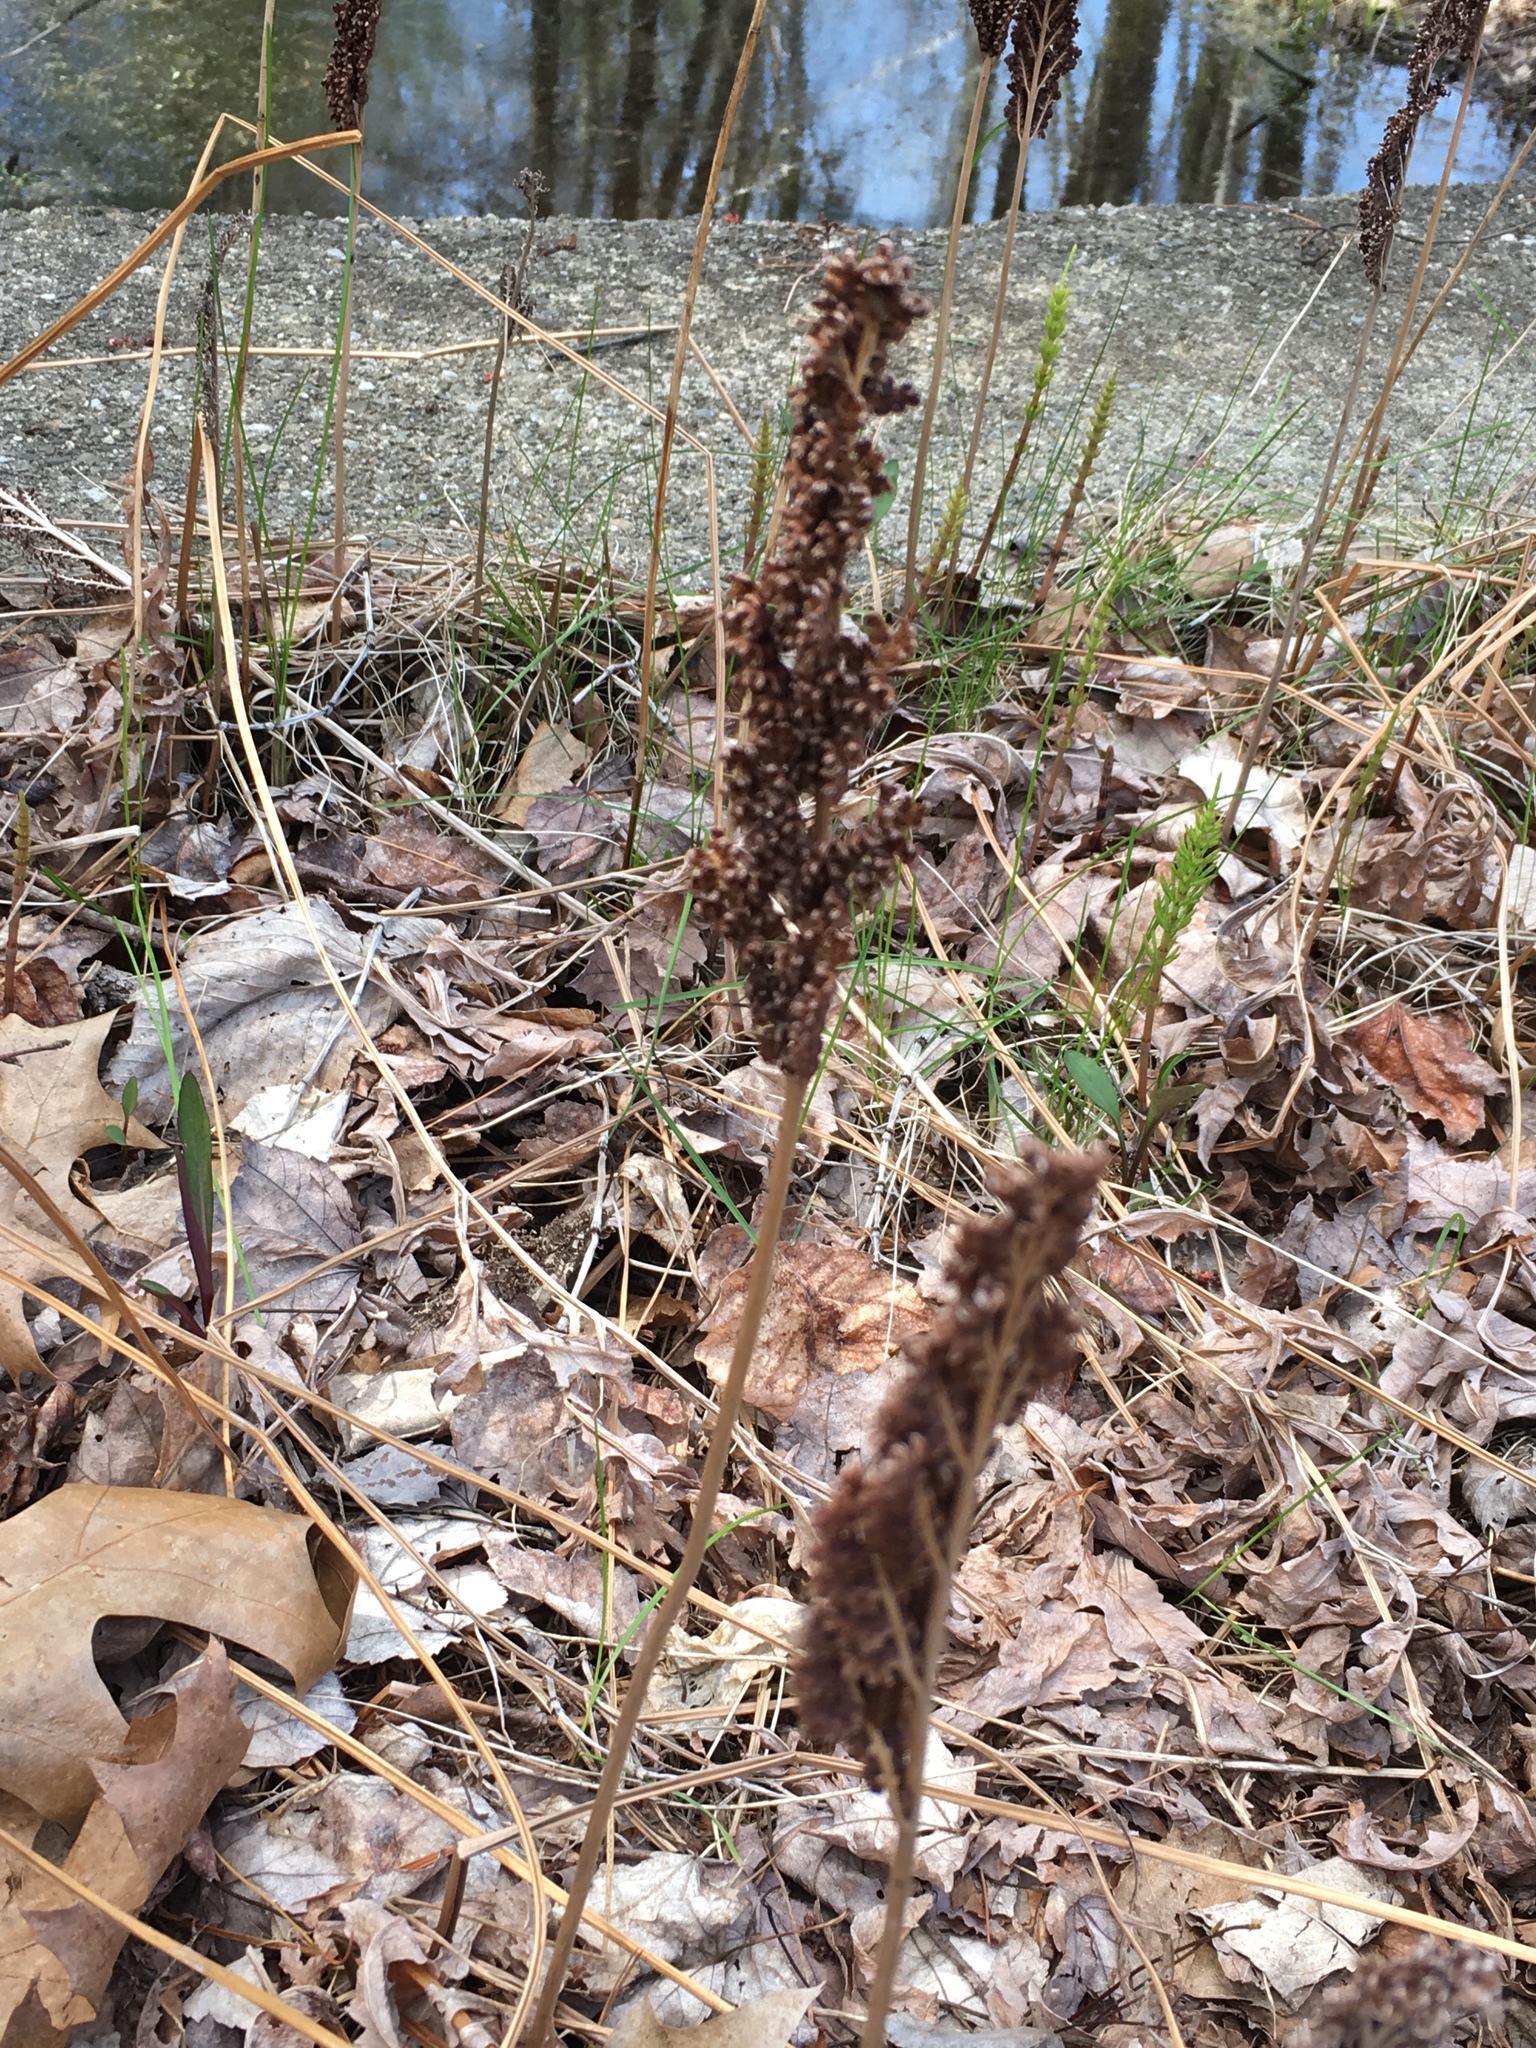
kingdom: Plantae
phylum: Tracheophyta
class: Polypodiopsida
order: Polypodiales
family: Onocleaceae
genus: Onoclea
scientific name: Onoclea sensibilis
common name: Sensitive fern
